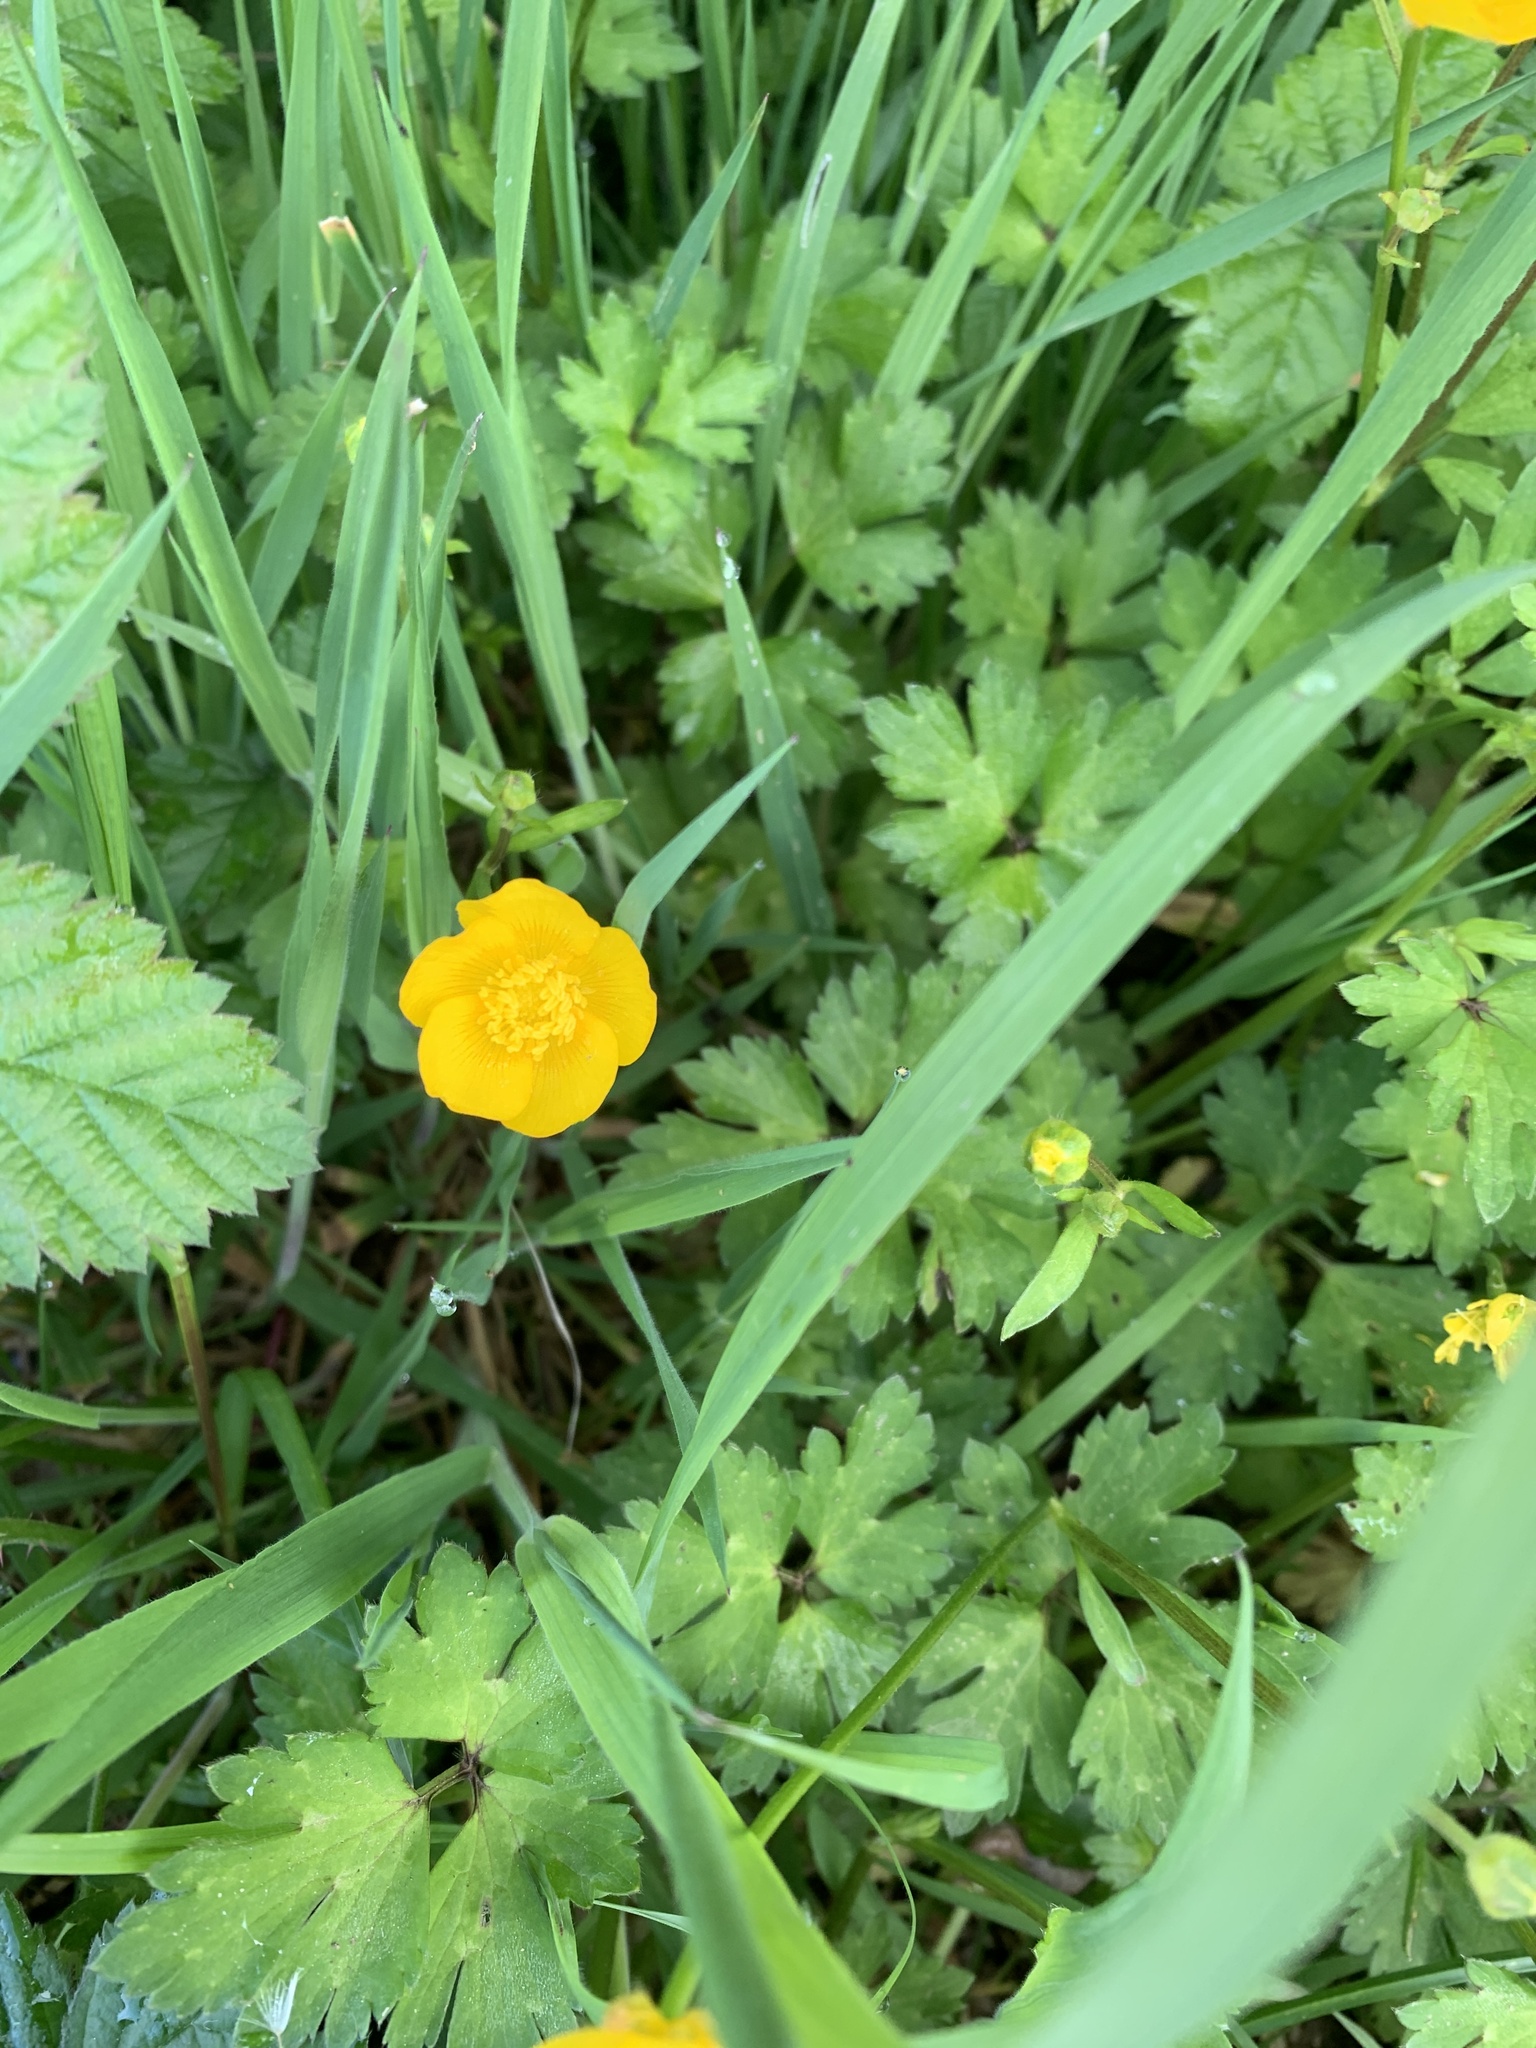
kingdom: Plantae
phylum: Tracheophyta
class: Magnoliopsida
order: Ranunculales
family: Ranunculaceae
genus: Ranunculus
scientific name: Ranunculus acris
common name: Meadow buttercup
